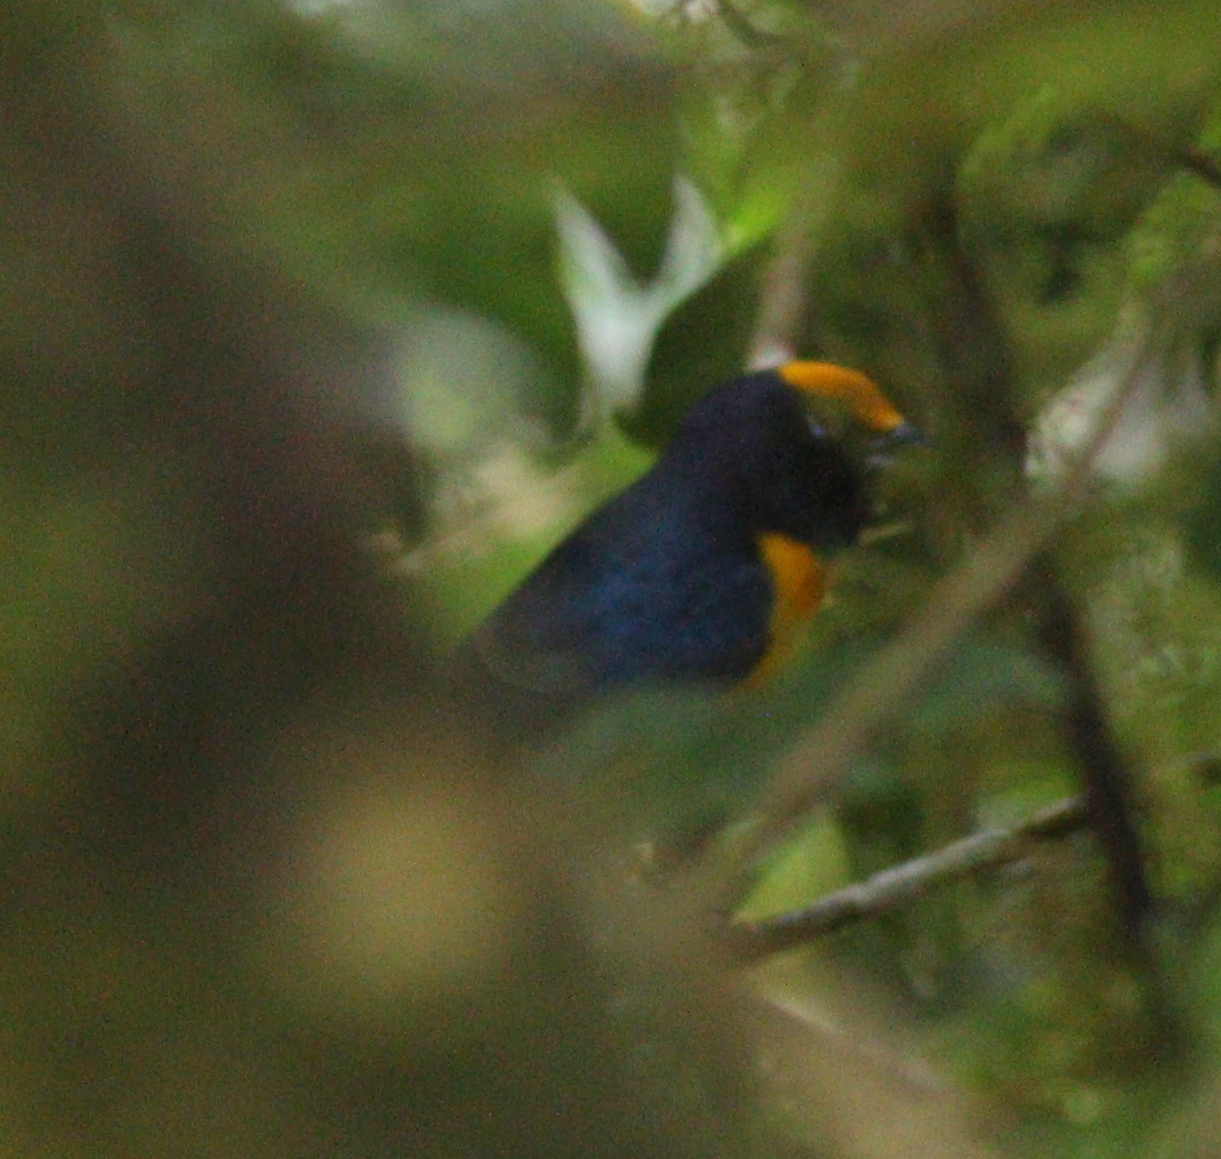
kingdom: Animalia
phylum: Chordata
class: Aves
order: Passeriformes
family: Fringillidae
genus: Euphonia
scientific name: Euphonia xanthogaster
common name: Orange-bellied euphonia
